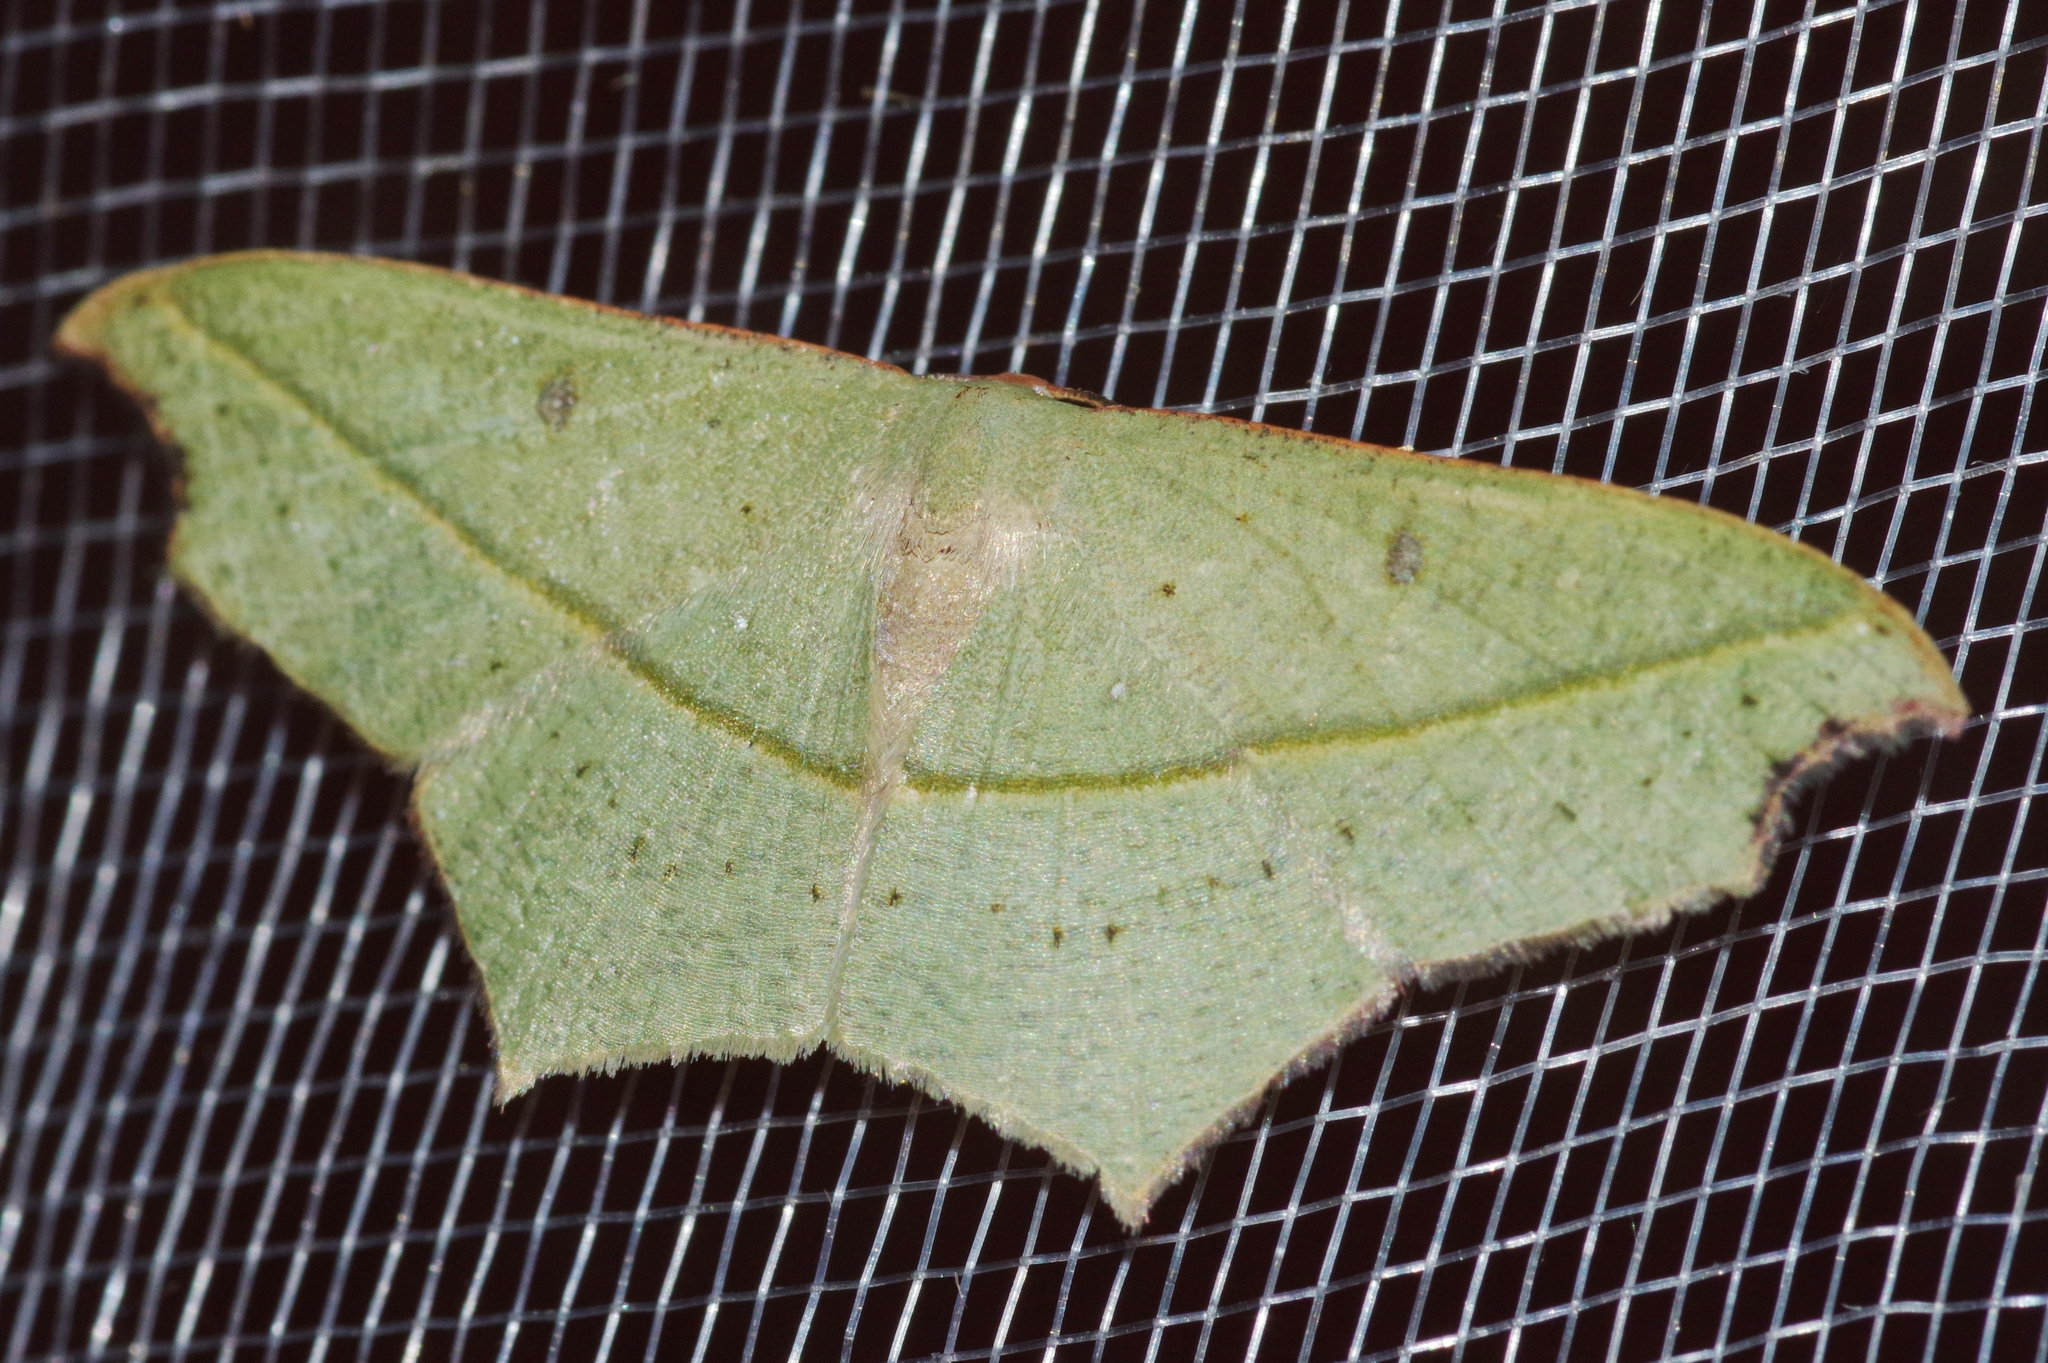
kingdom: Animalia
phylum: Arthropoda
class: Insecta
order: Lepidoptera
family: Geometridae
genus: Traminda
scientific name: Traminda aventiaria
